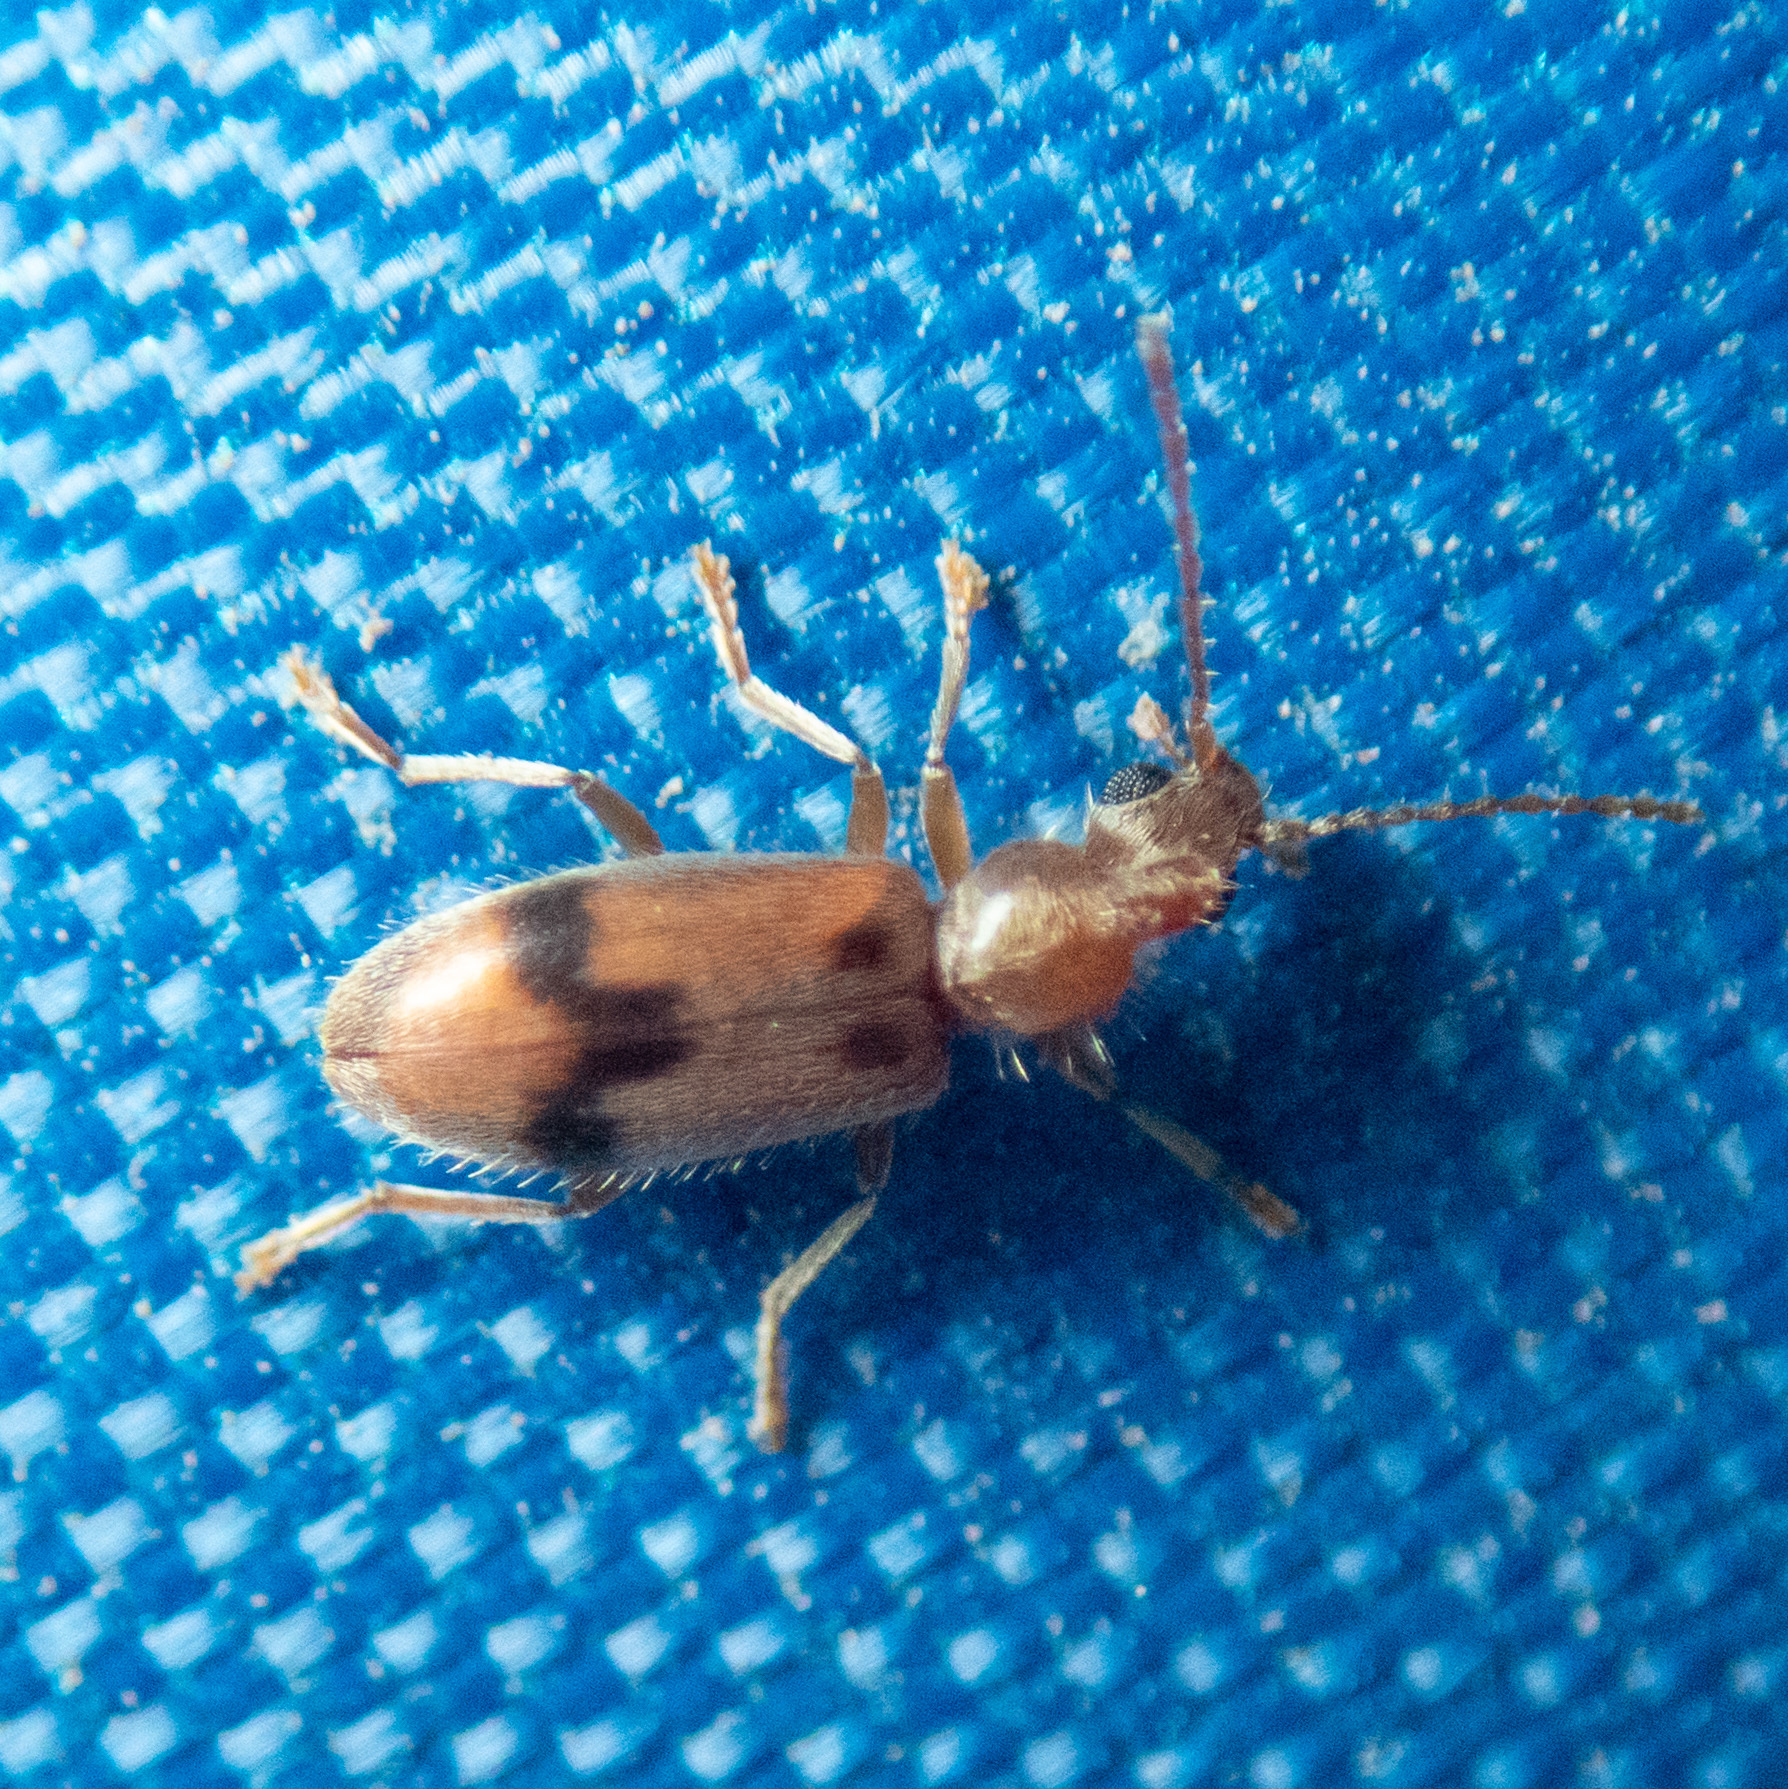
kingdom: Animalia
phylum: Arthropoda
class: Insecta
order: Coleoptera
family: Anthicidae
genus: Notoxus
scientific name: Notoxus monodon
